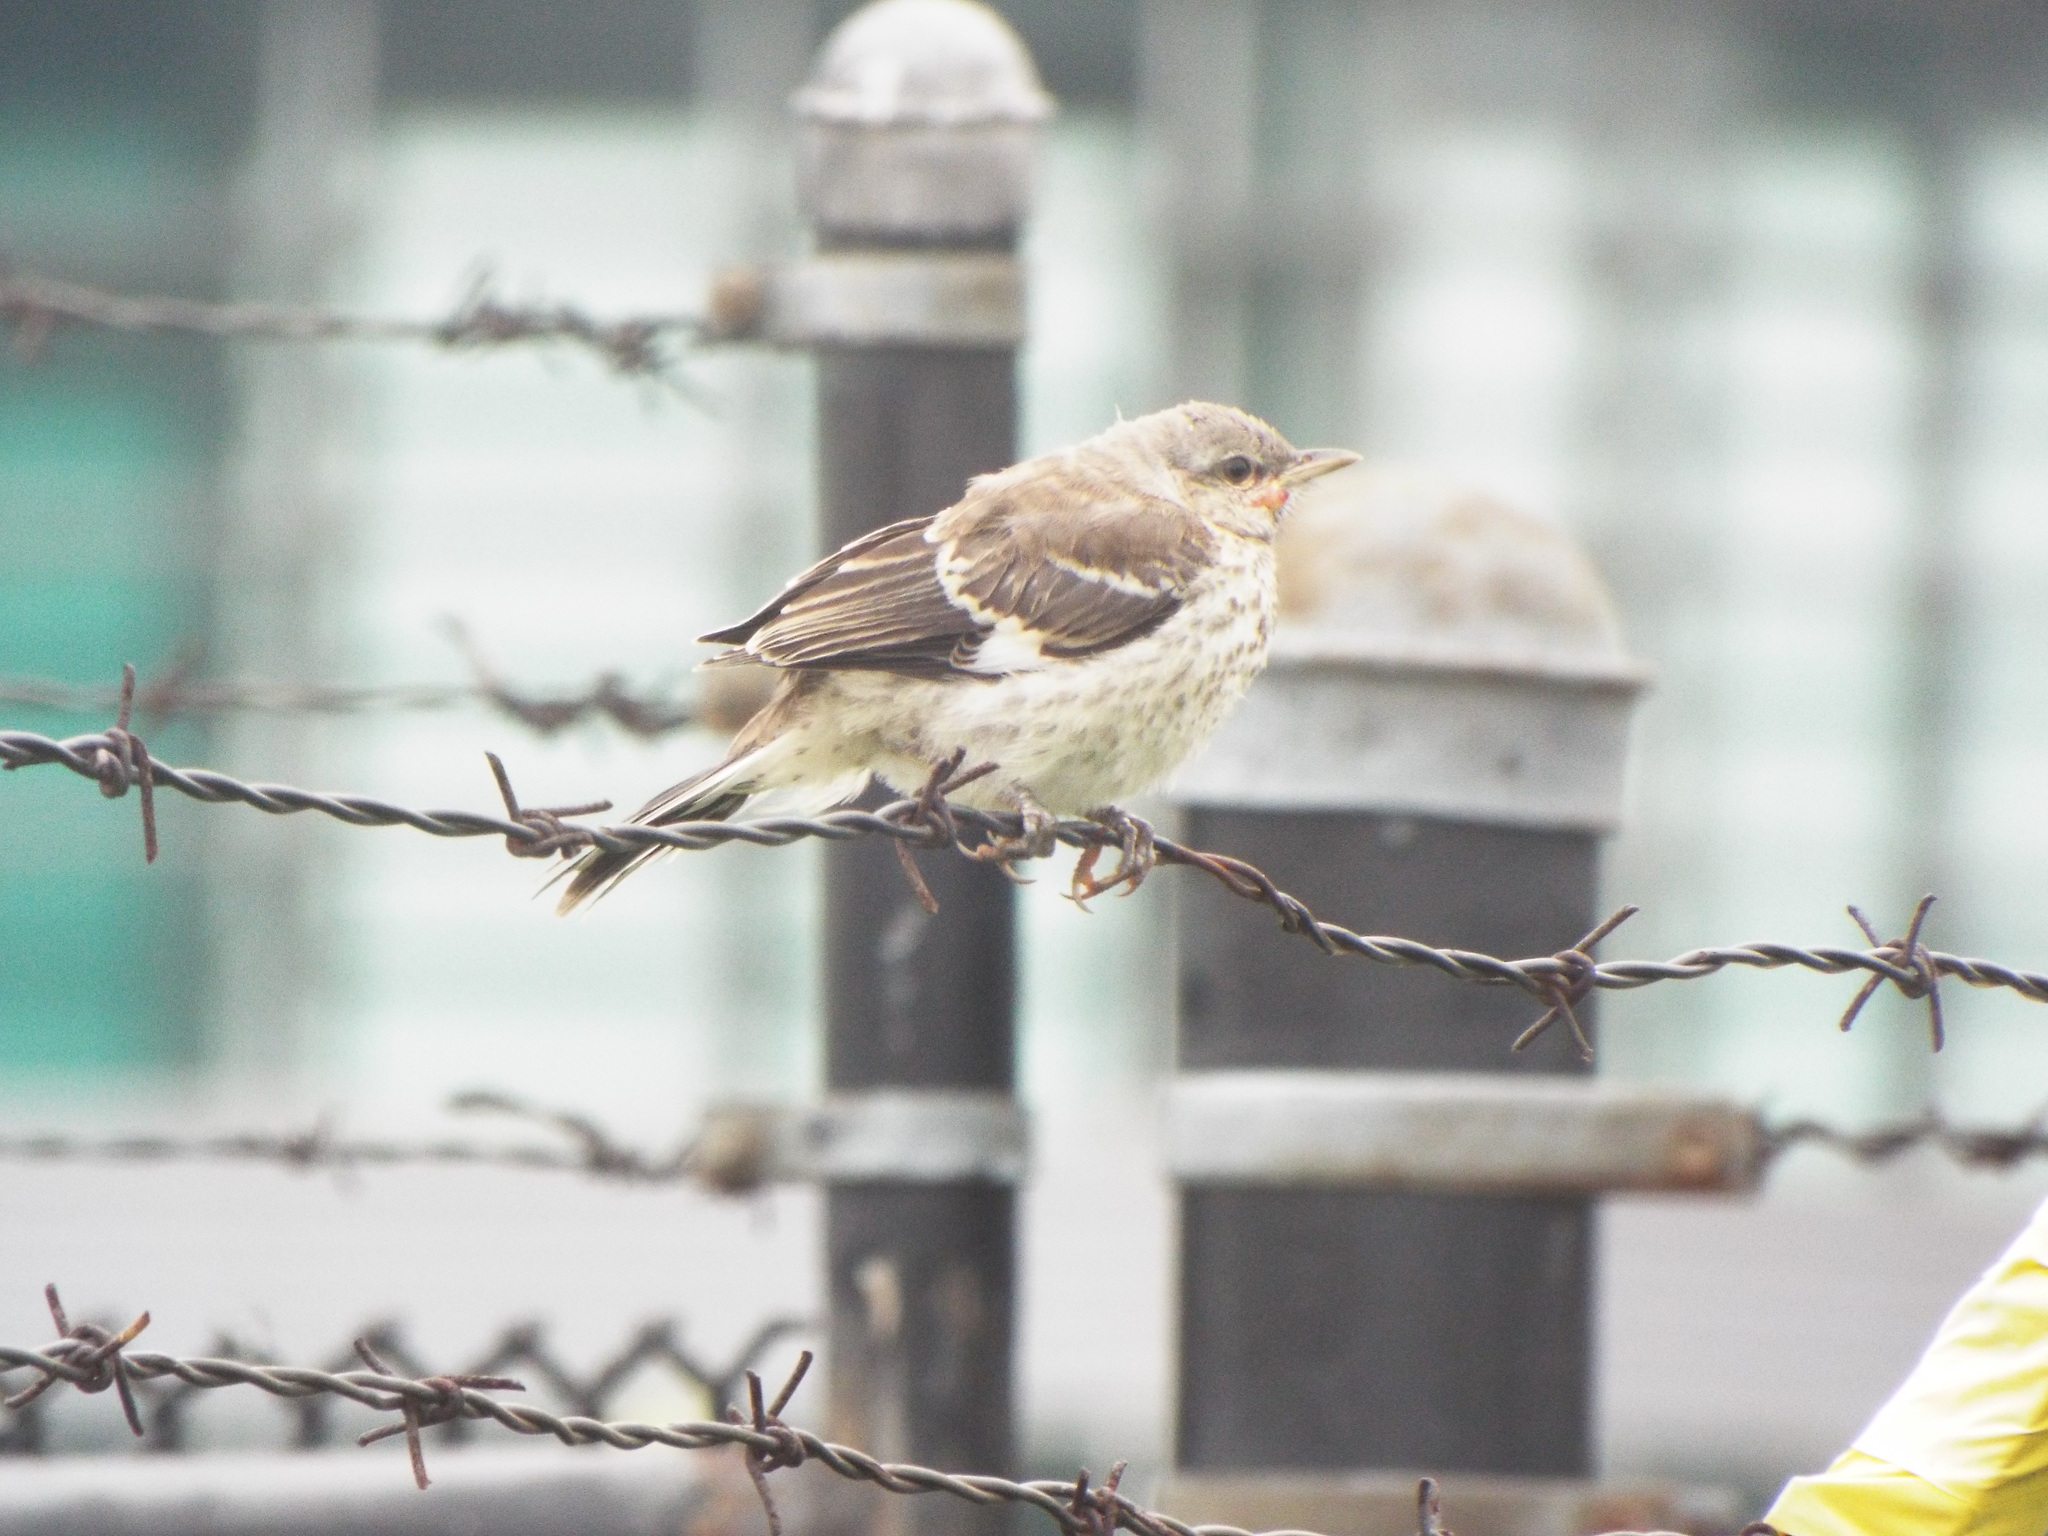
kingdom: Animalia
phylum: Chordata
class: Aves
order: Passeriformes
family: Mimidae
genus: Mimus
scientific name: Mimus polyglottos
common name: Northern mockingbird
